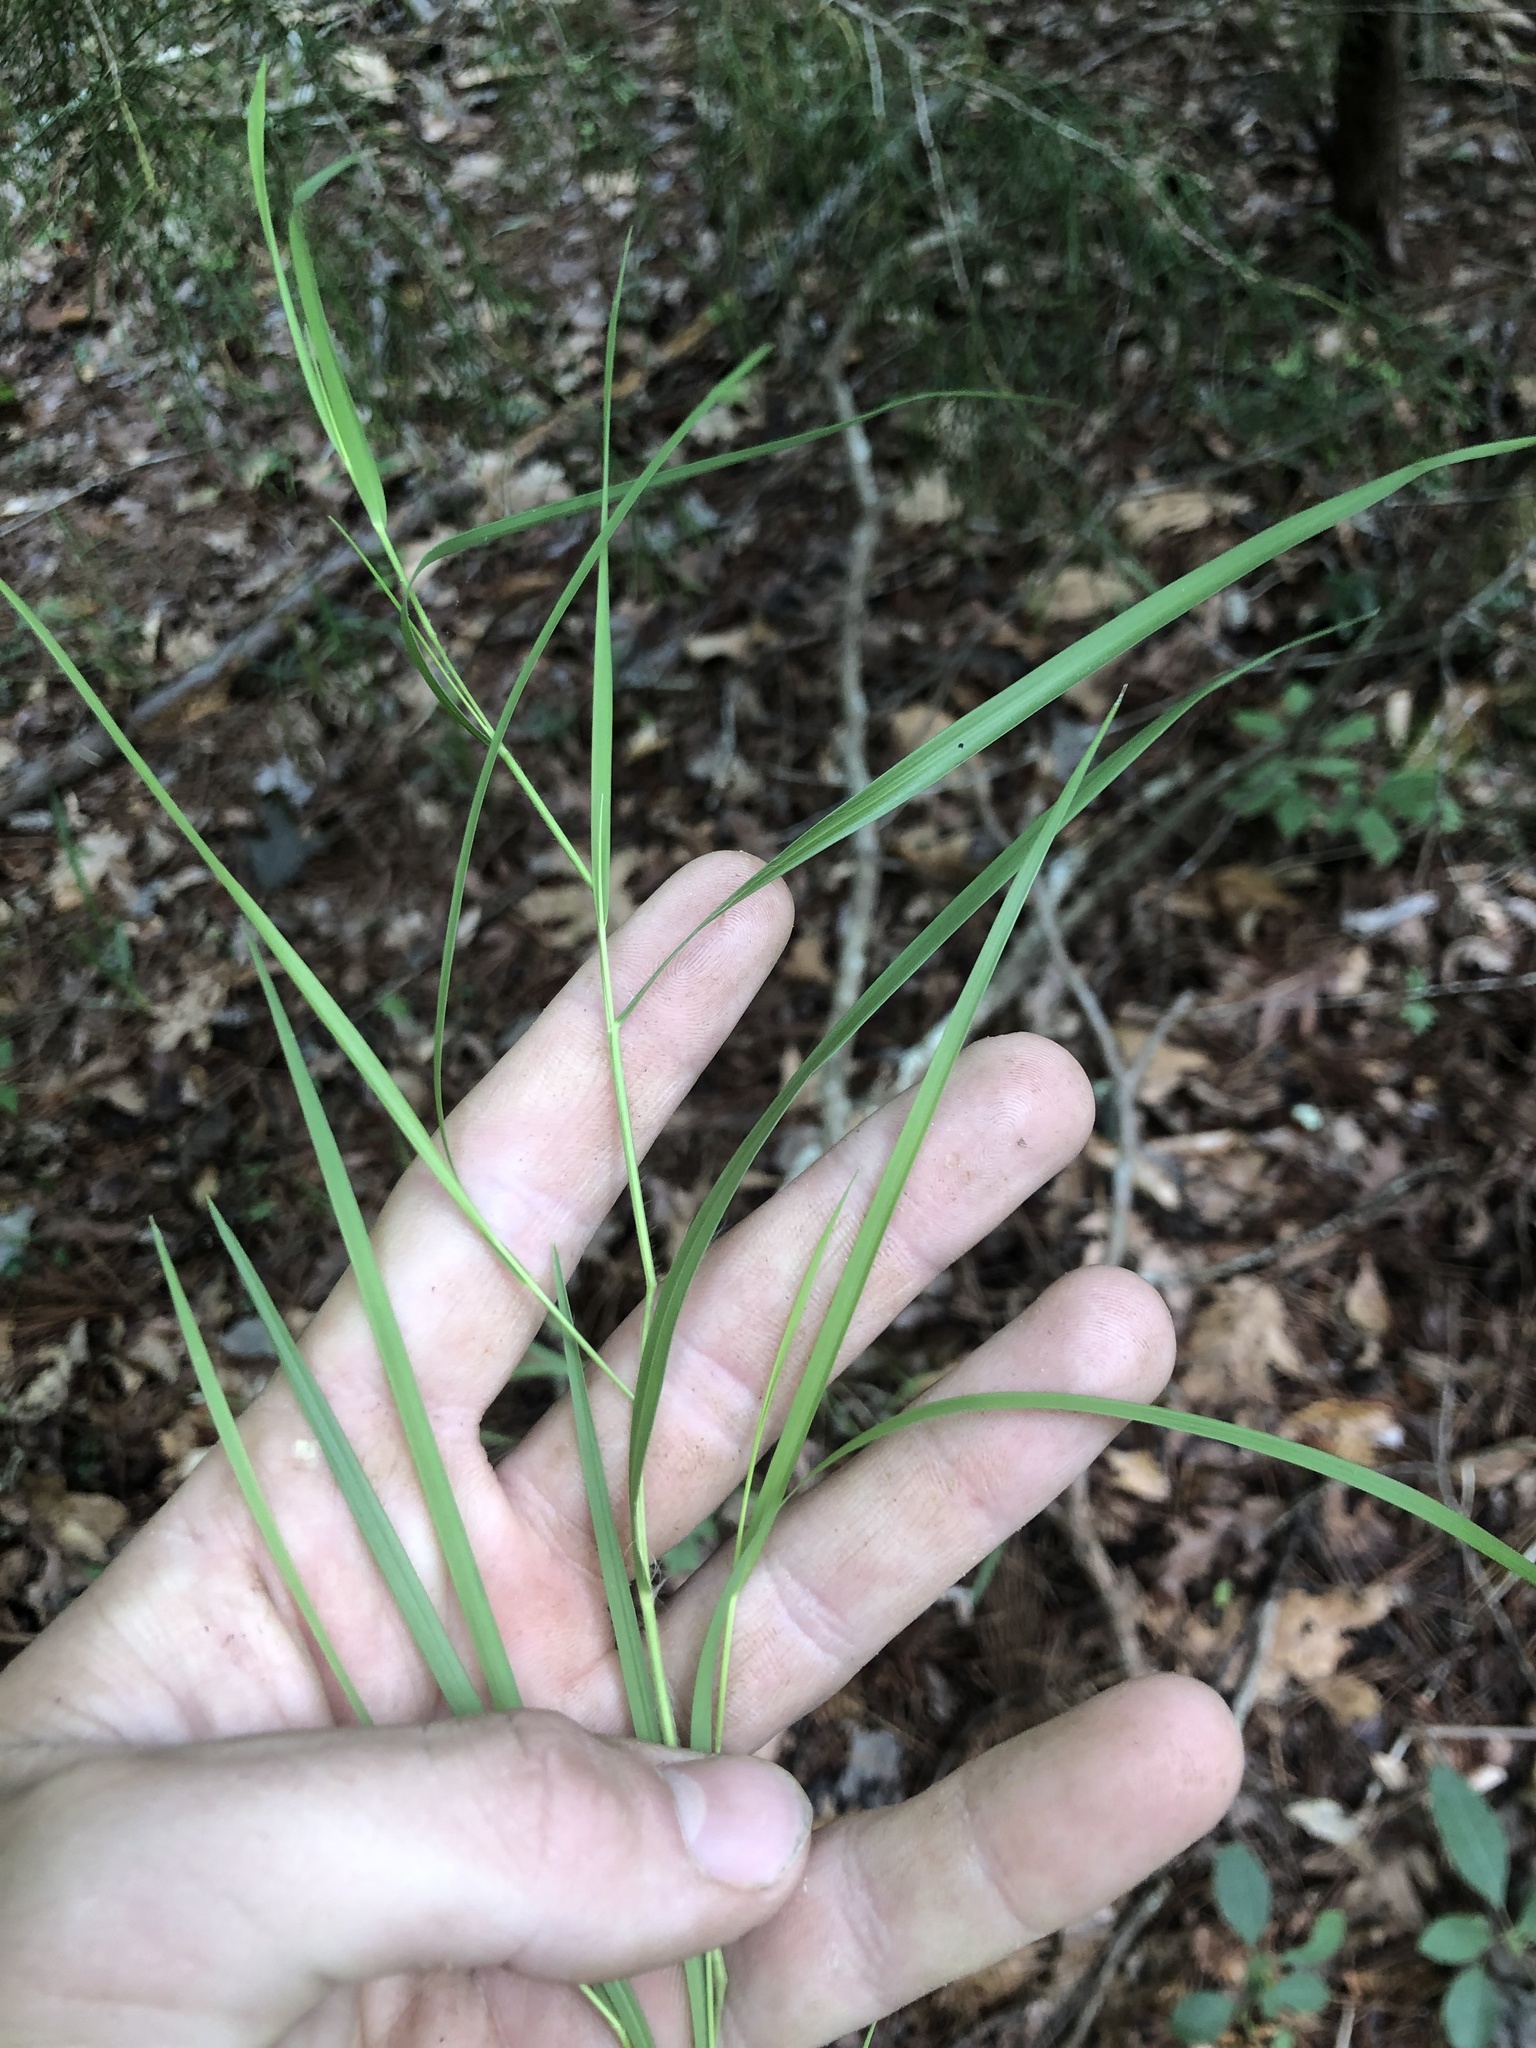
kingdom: Plantae
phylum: Tracheophyta
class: Liliopsida
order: Poales
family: Poaceae
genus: Dichanthelium
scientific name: Dichanthelium angustifolium
